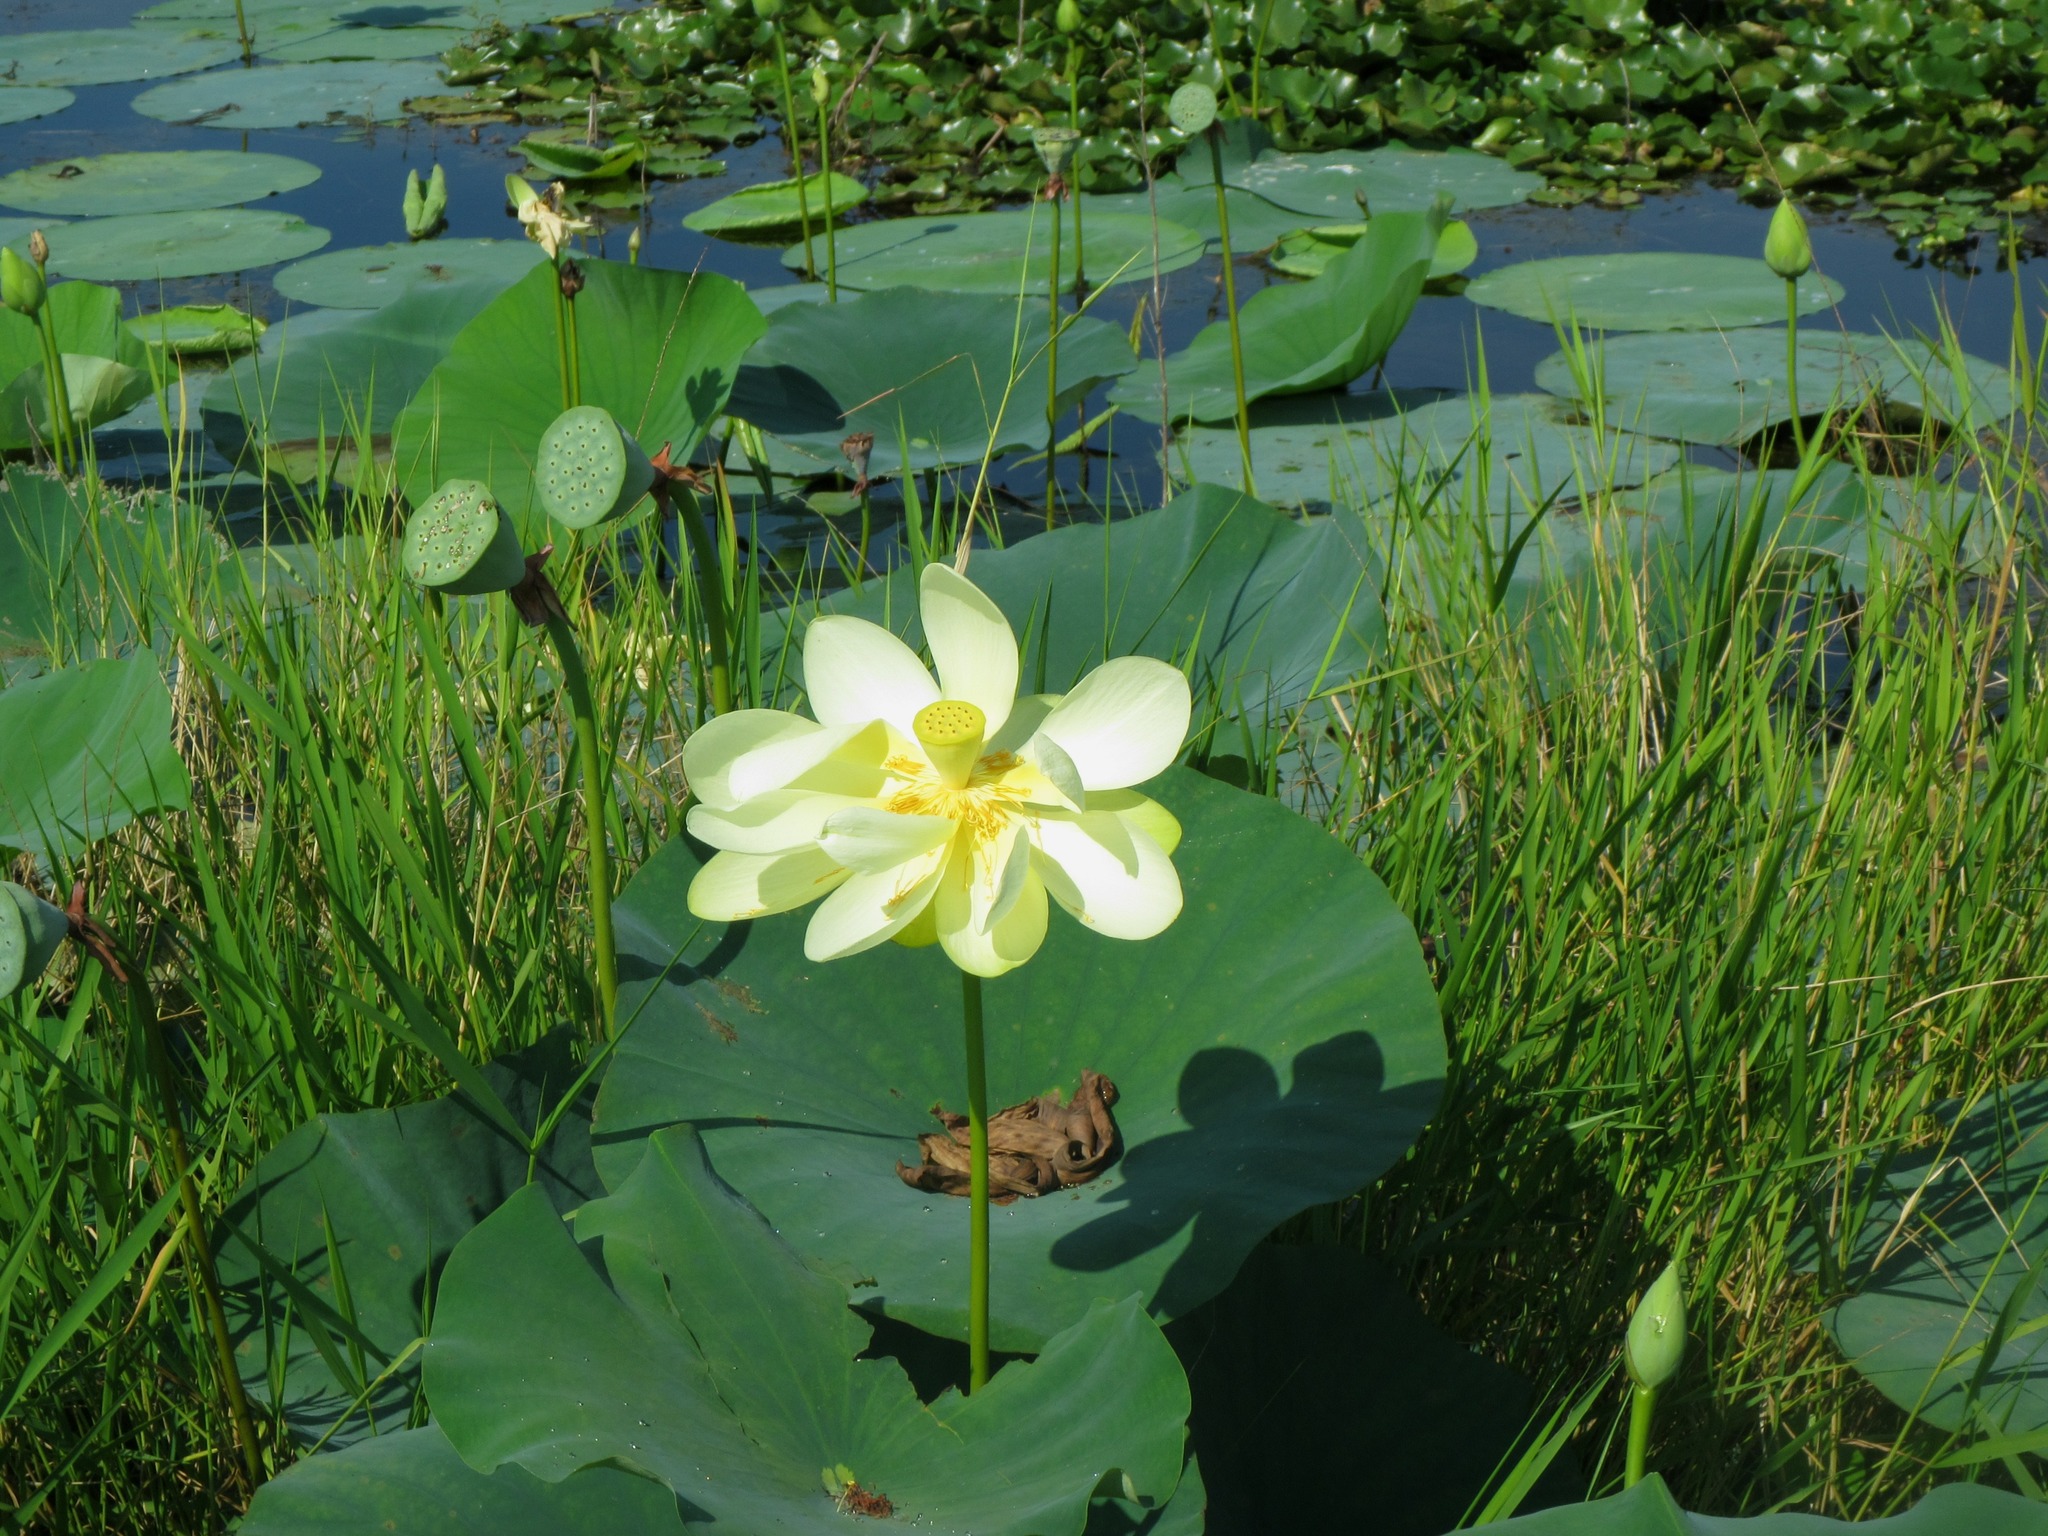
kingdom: Plantae
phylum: Tracheophyta
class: Magnoliopsida
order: Proteales
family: Nelumbonaceae
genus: Nelumbo
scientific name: Nelumbo lutea
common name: American lotus
